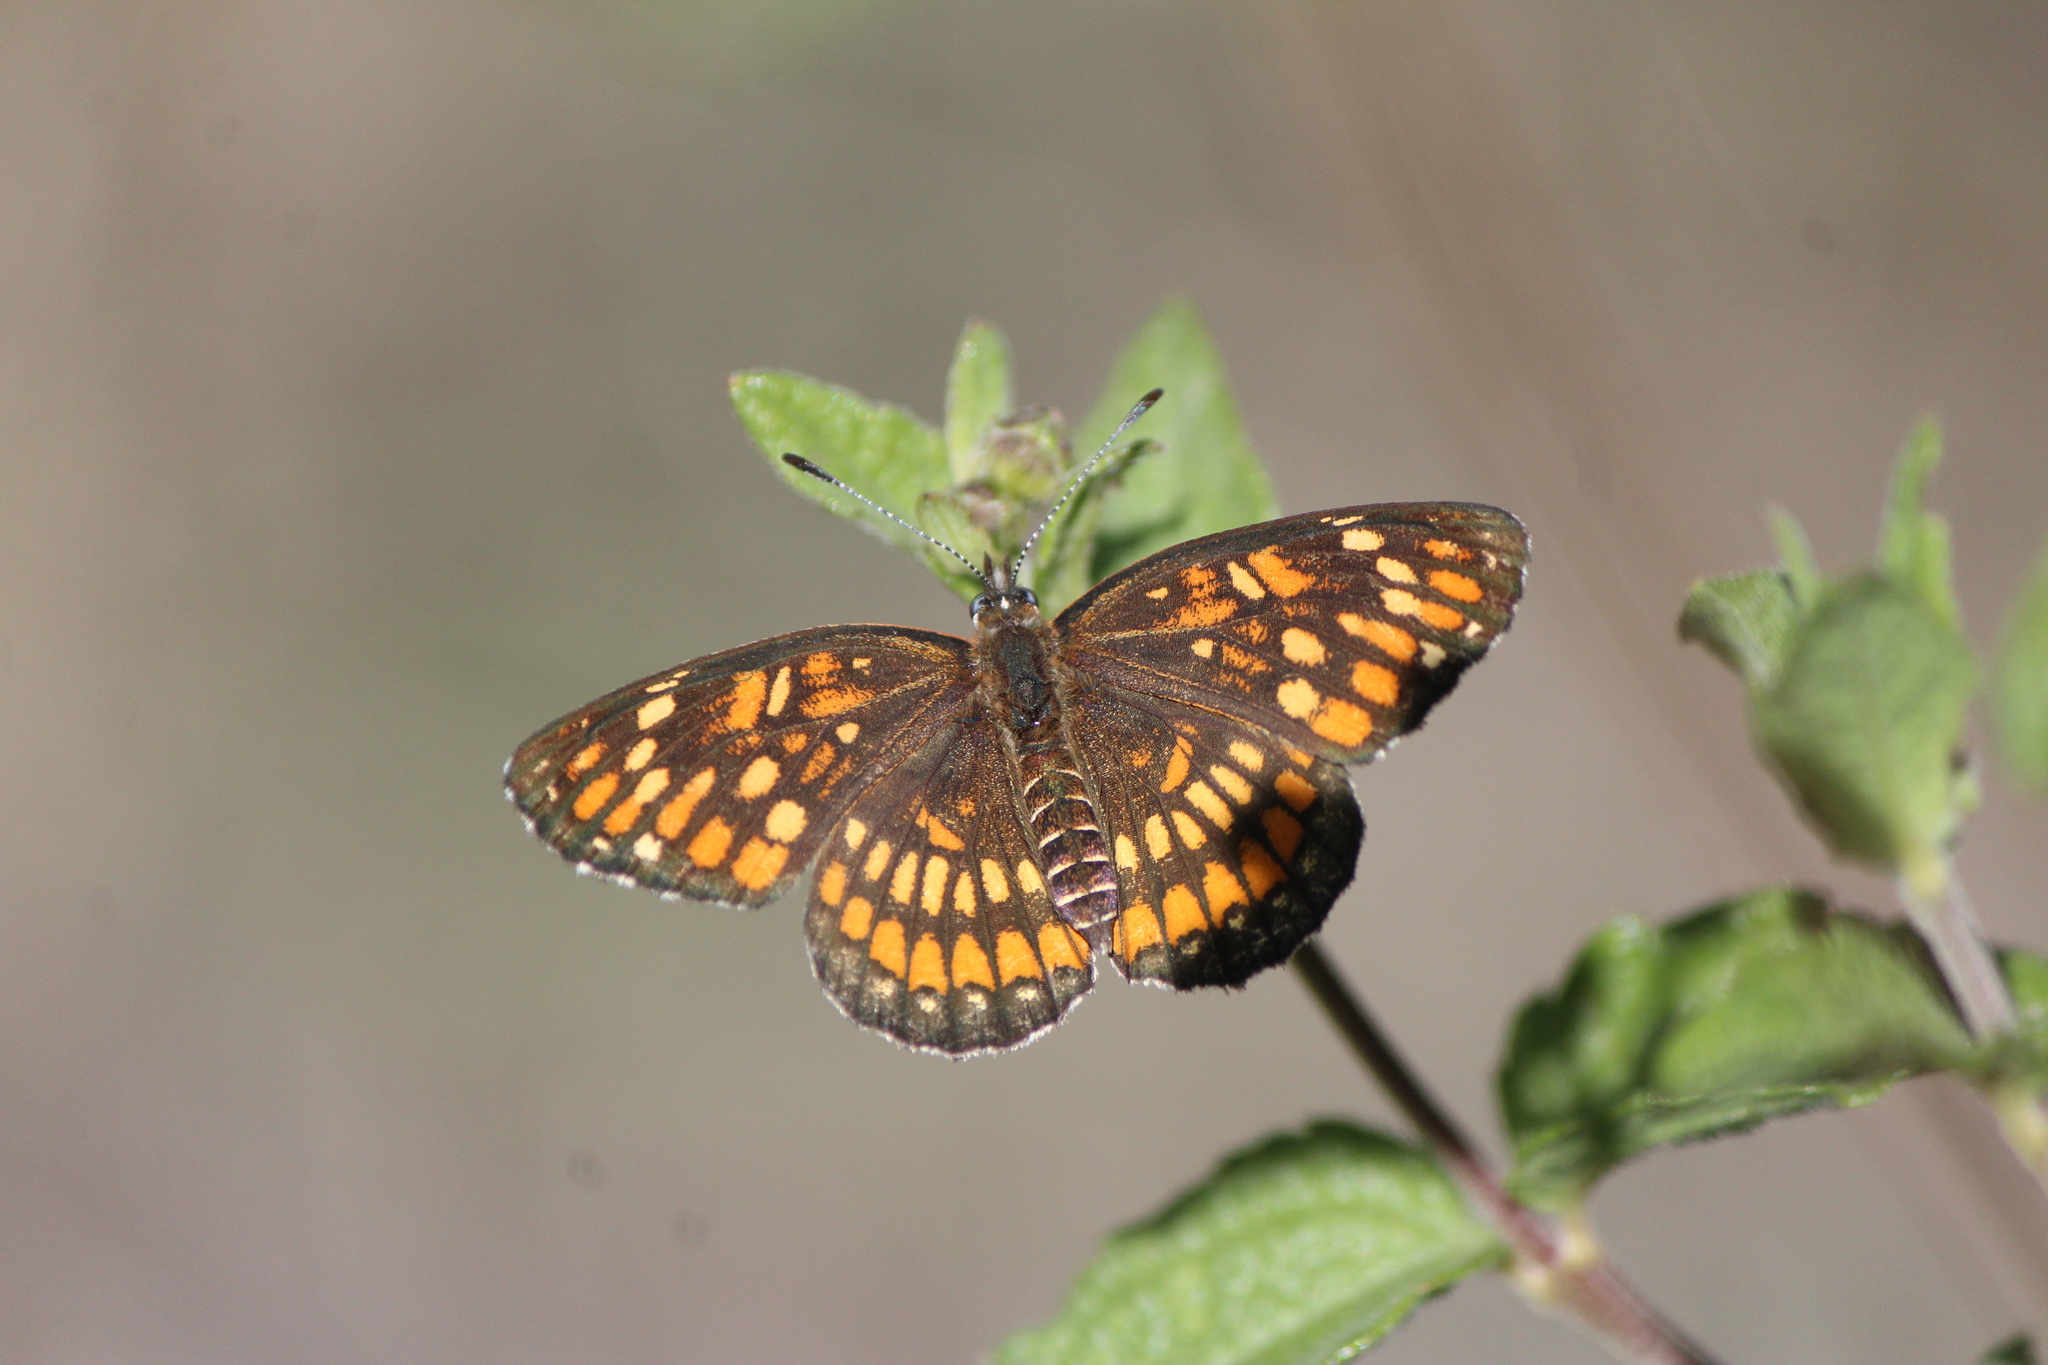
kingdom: Animalia
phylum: Arthropoda
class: Insecta
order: Lepidoptera
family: Nymphalidae
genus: Thessalia
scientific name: Thessalia theona
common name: Nymphalid moth
